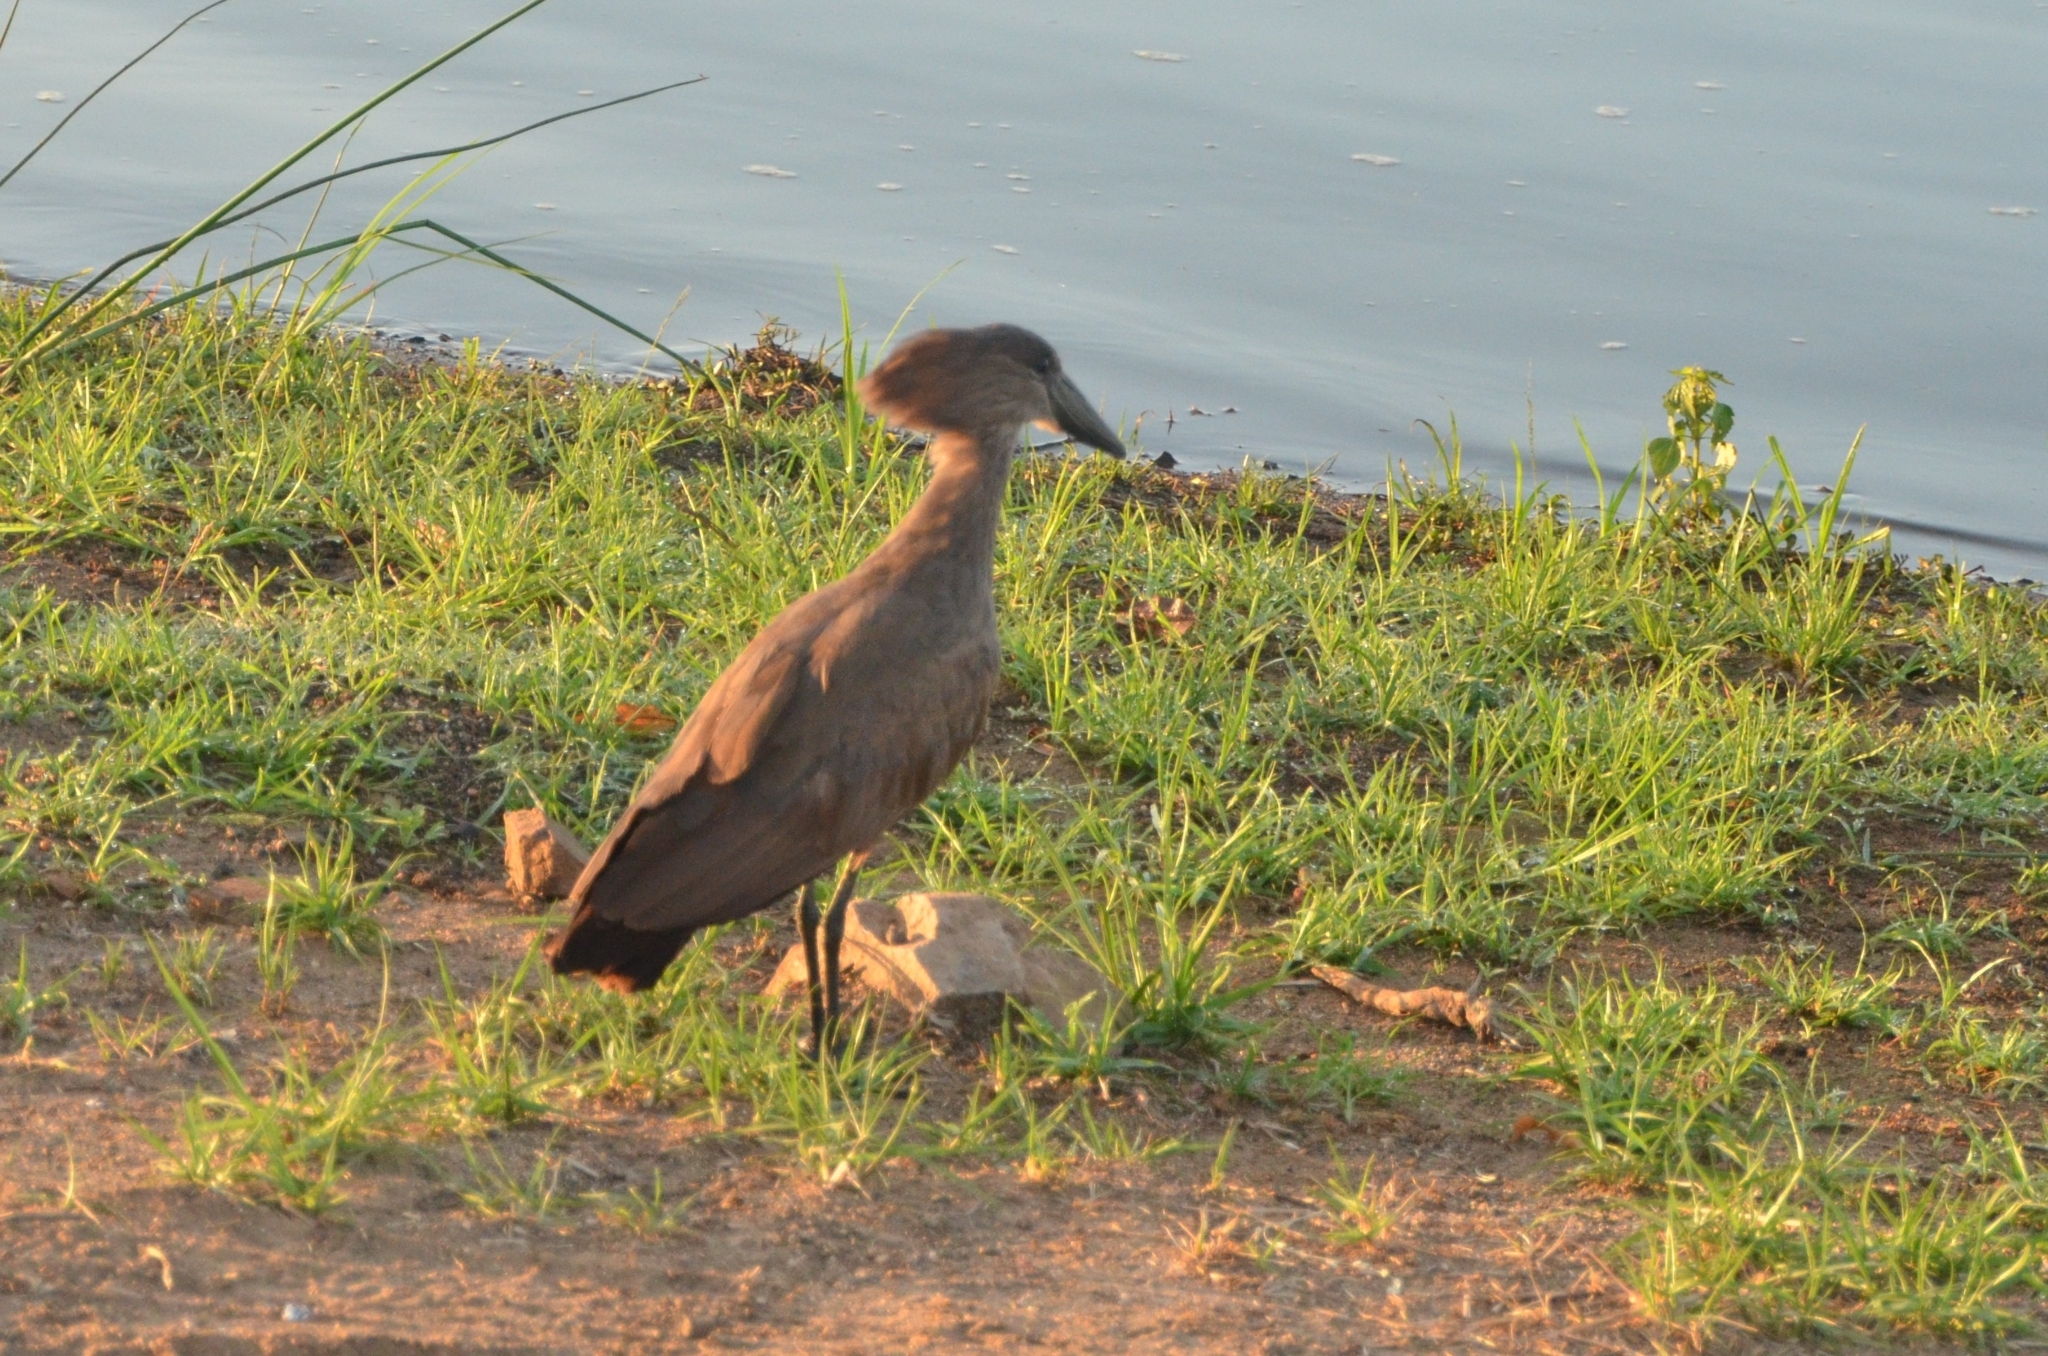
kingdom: Animalia
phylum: Chordata
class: Aves
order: Pelecaniformes
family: Scopidae
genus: Scopus
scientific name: Scopus umbretta
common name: Hamerkop
